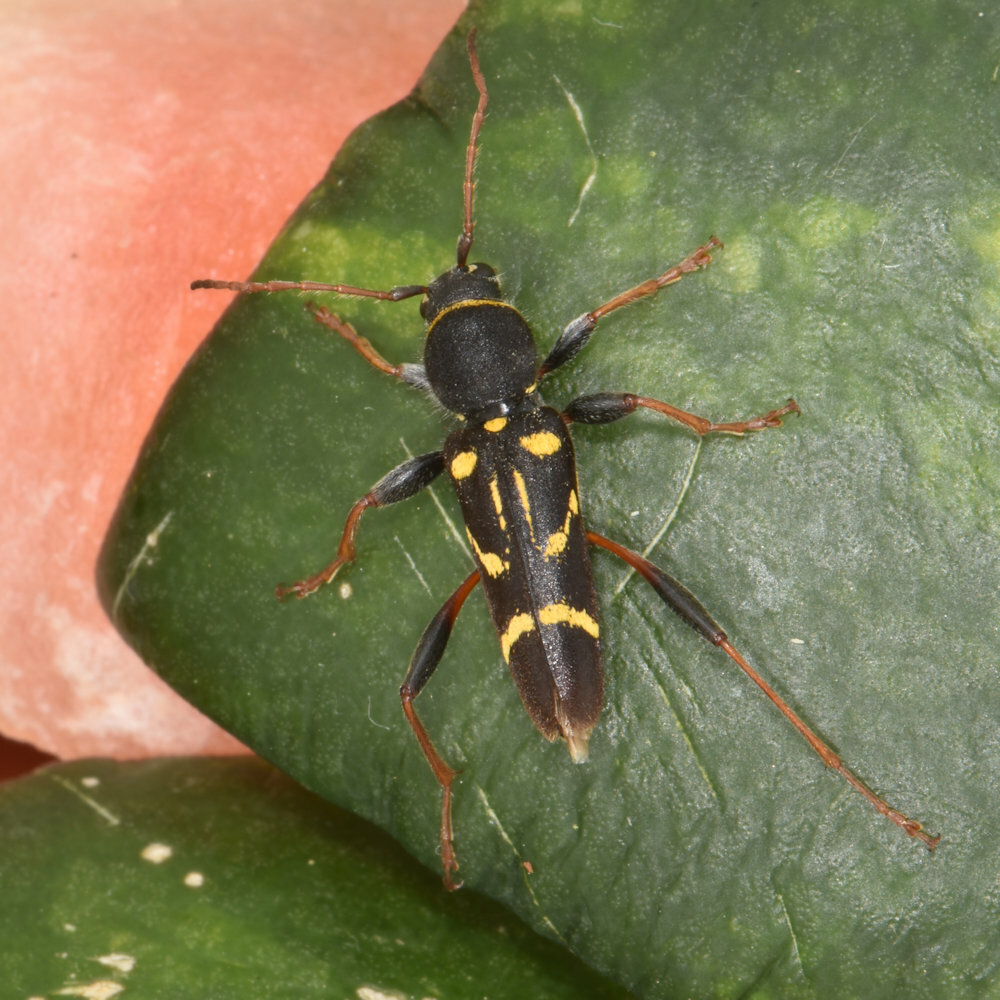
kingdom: Animalia
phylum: Arthropoda
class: Insecta
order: Coleoptera
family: Cerambycidae
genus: Clytus
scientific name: Clytus ruricola
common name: Round-necked longhorn beetle
